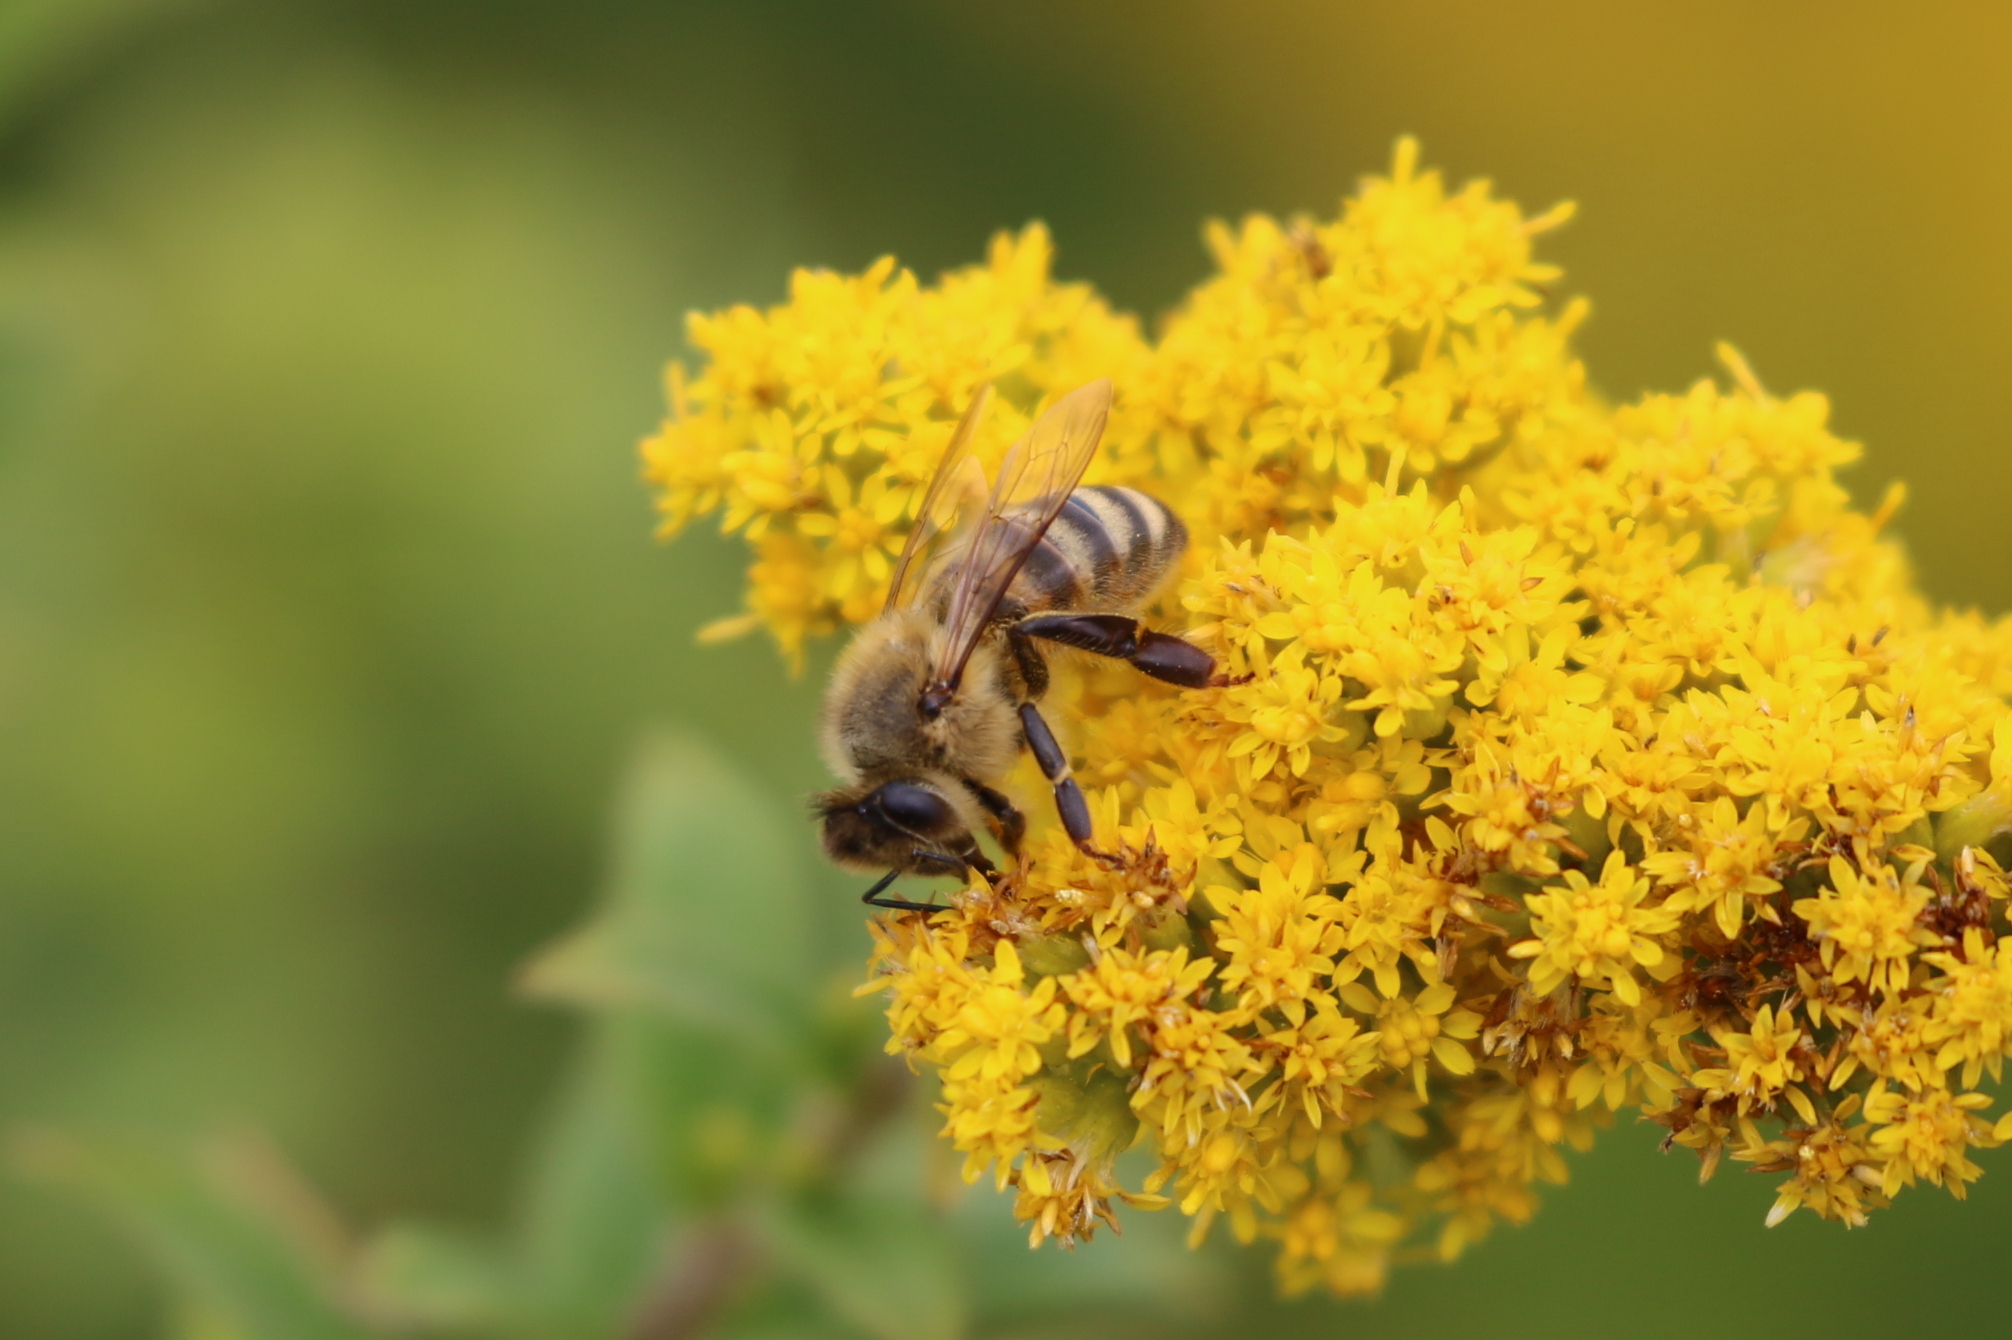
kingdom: Animalia
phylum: Arthropoda
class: Insecta
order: Hymenoptera
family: Apidae
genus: Apis
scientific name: Apis mellifera
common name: Honey bee
